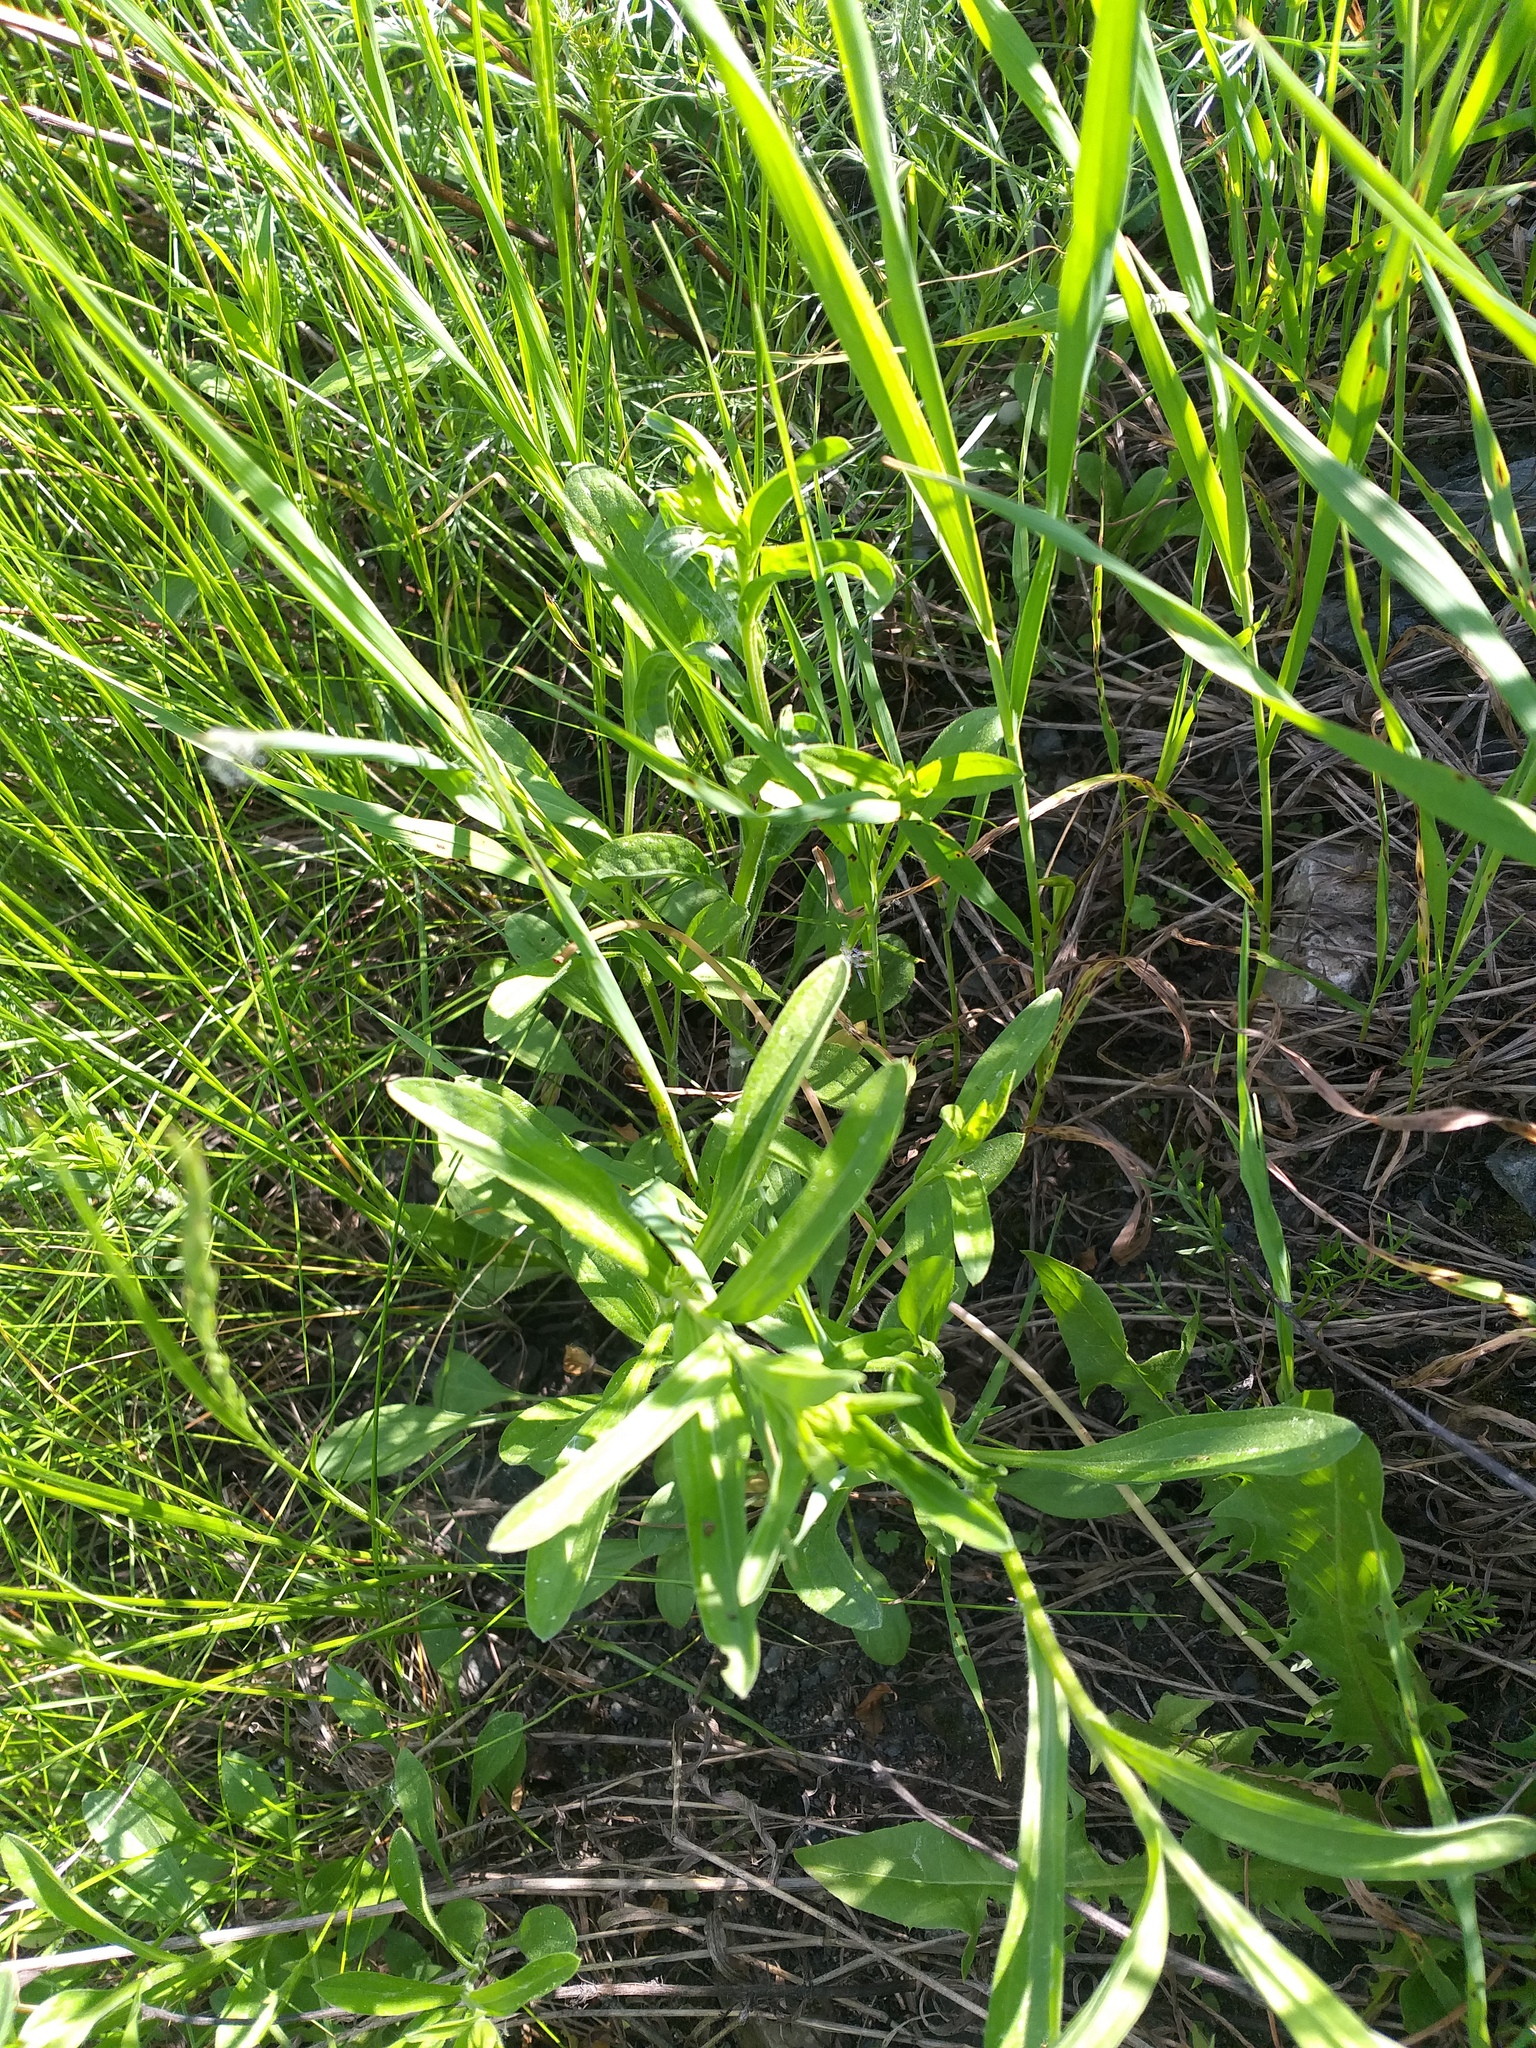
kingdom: Plantae
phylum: Tracheophyta
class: Magnoliopsida
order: Asterales
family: Asteraceae
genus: Erigeron
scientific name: Erigeron droebachiensis
